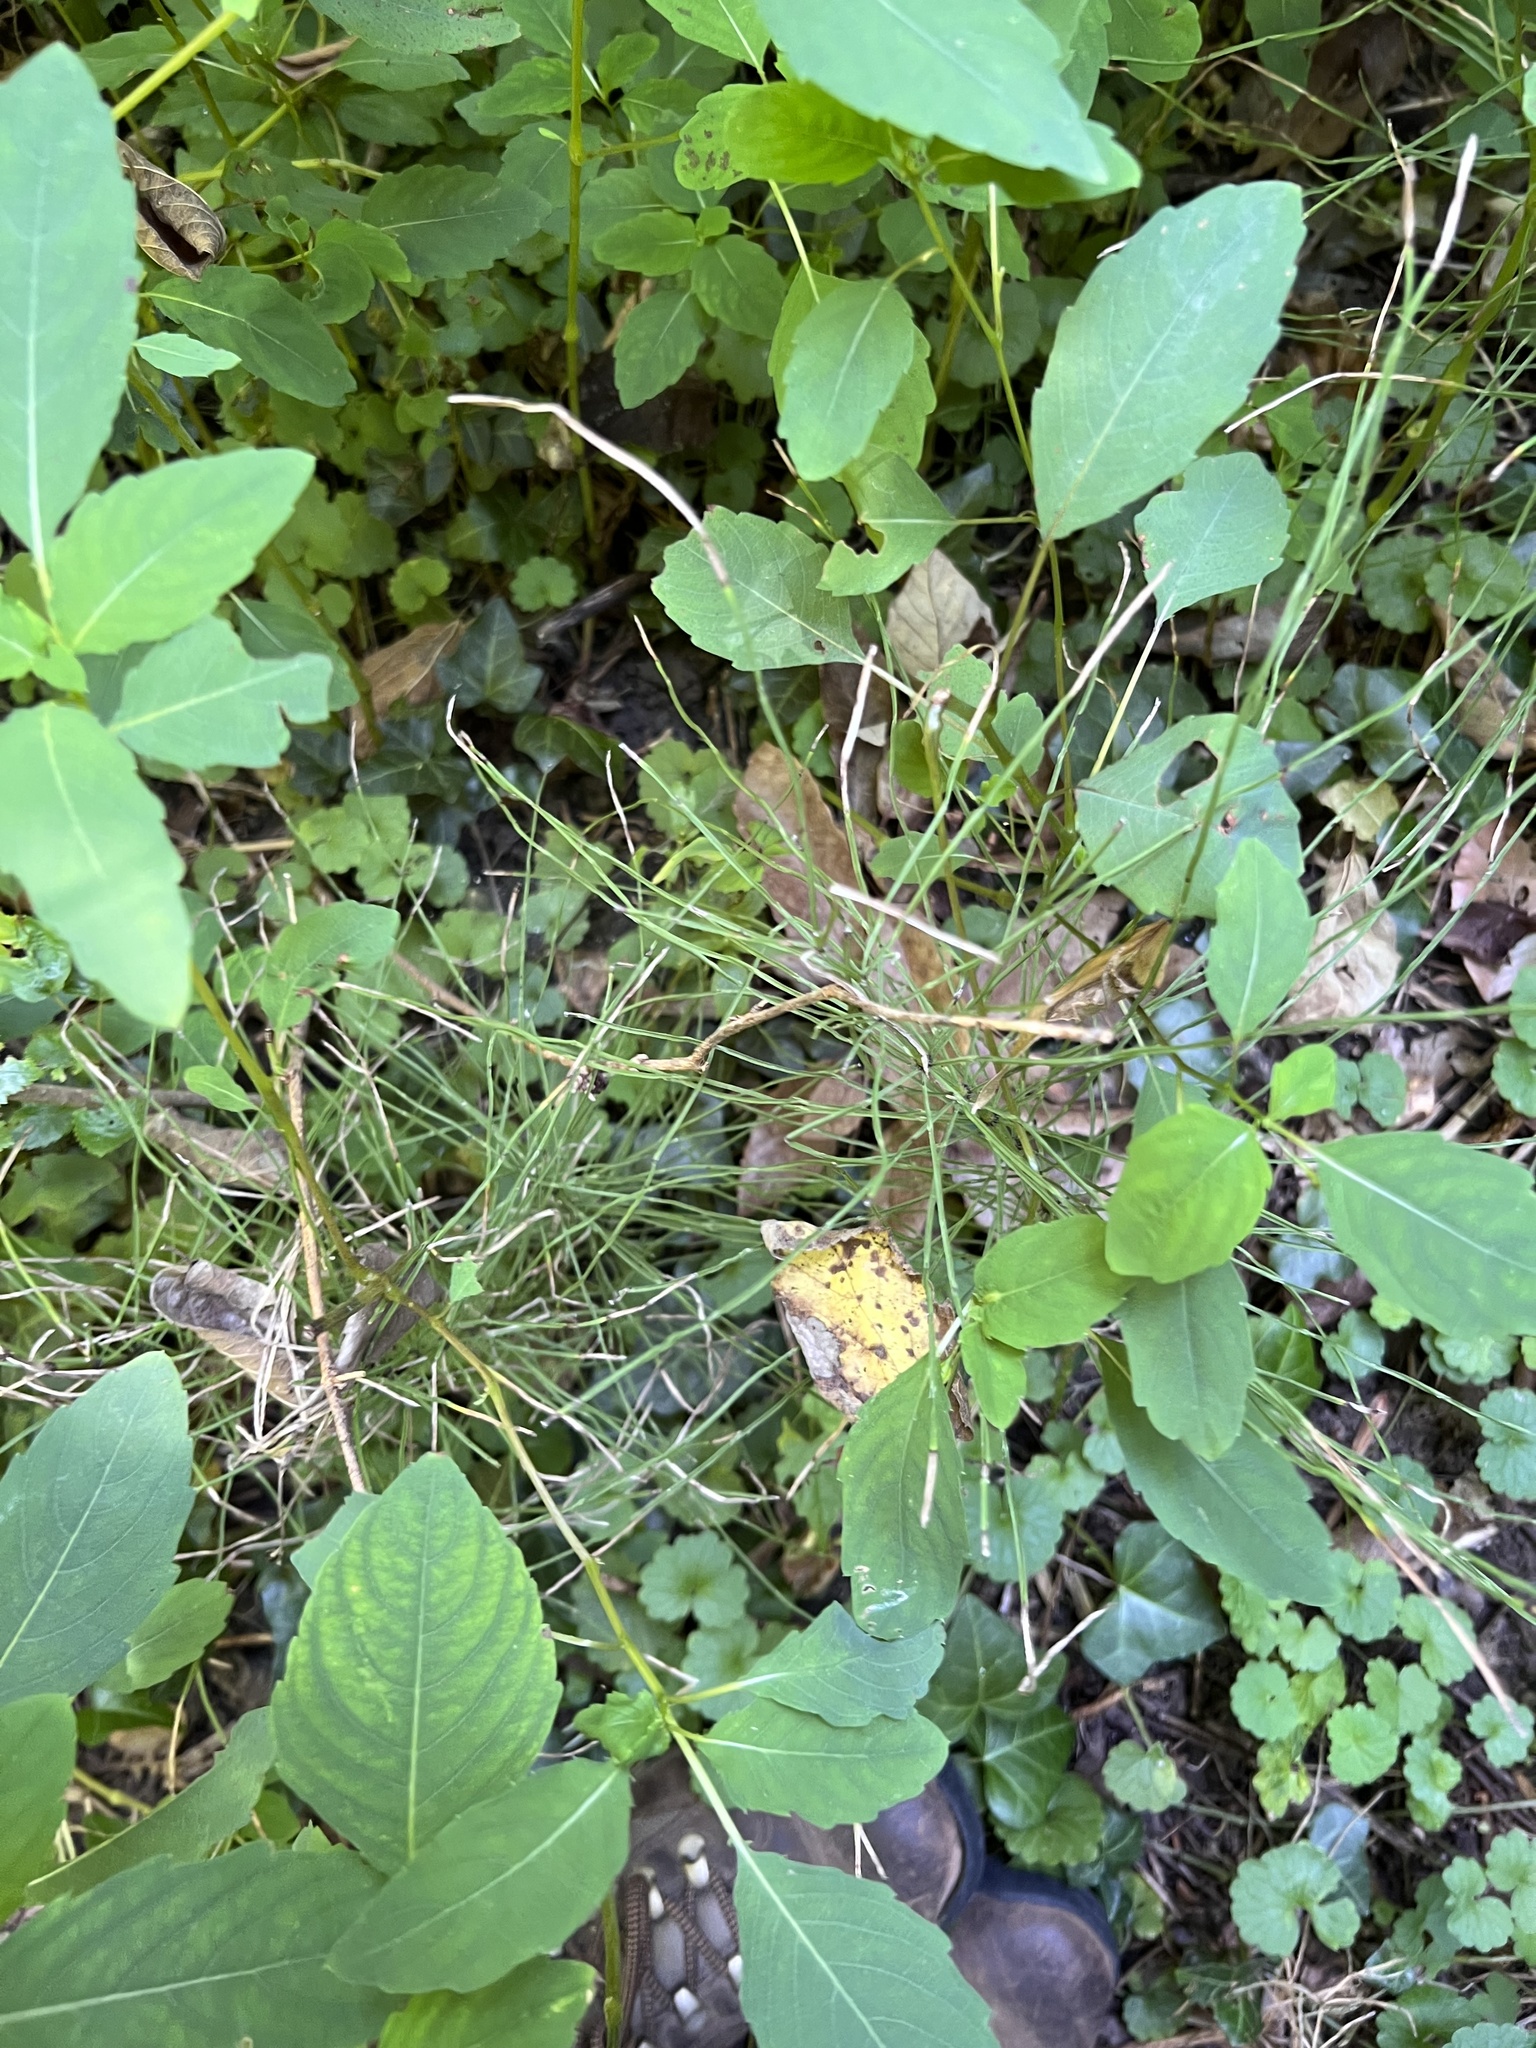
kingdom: Plantae
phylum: Tracheophyta
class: Polypodiopsida
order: Equisetales
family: Equisetaceae
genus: Equisetum
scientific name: Equisetum arvense
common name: Field horsetail
